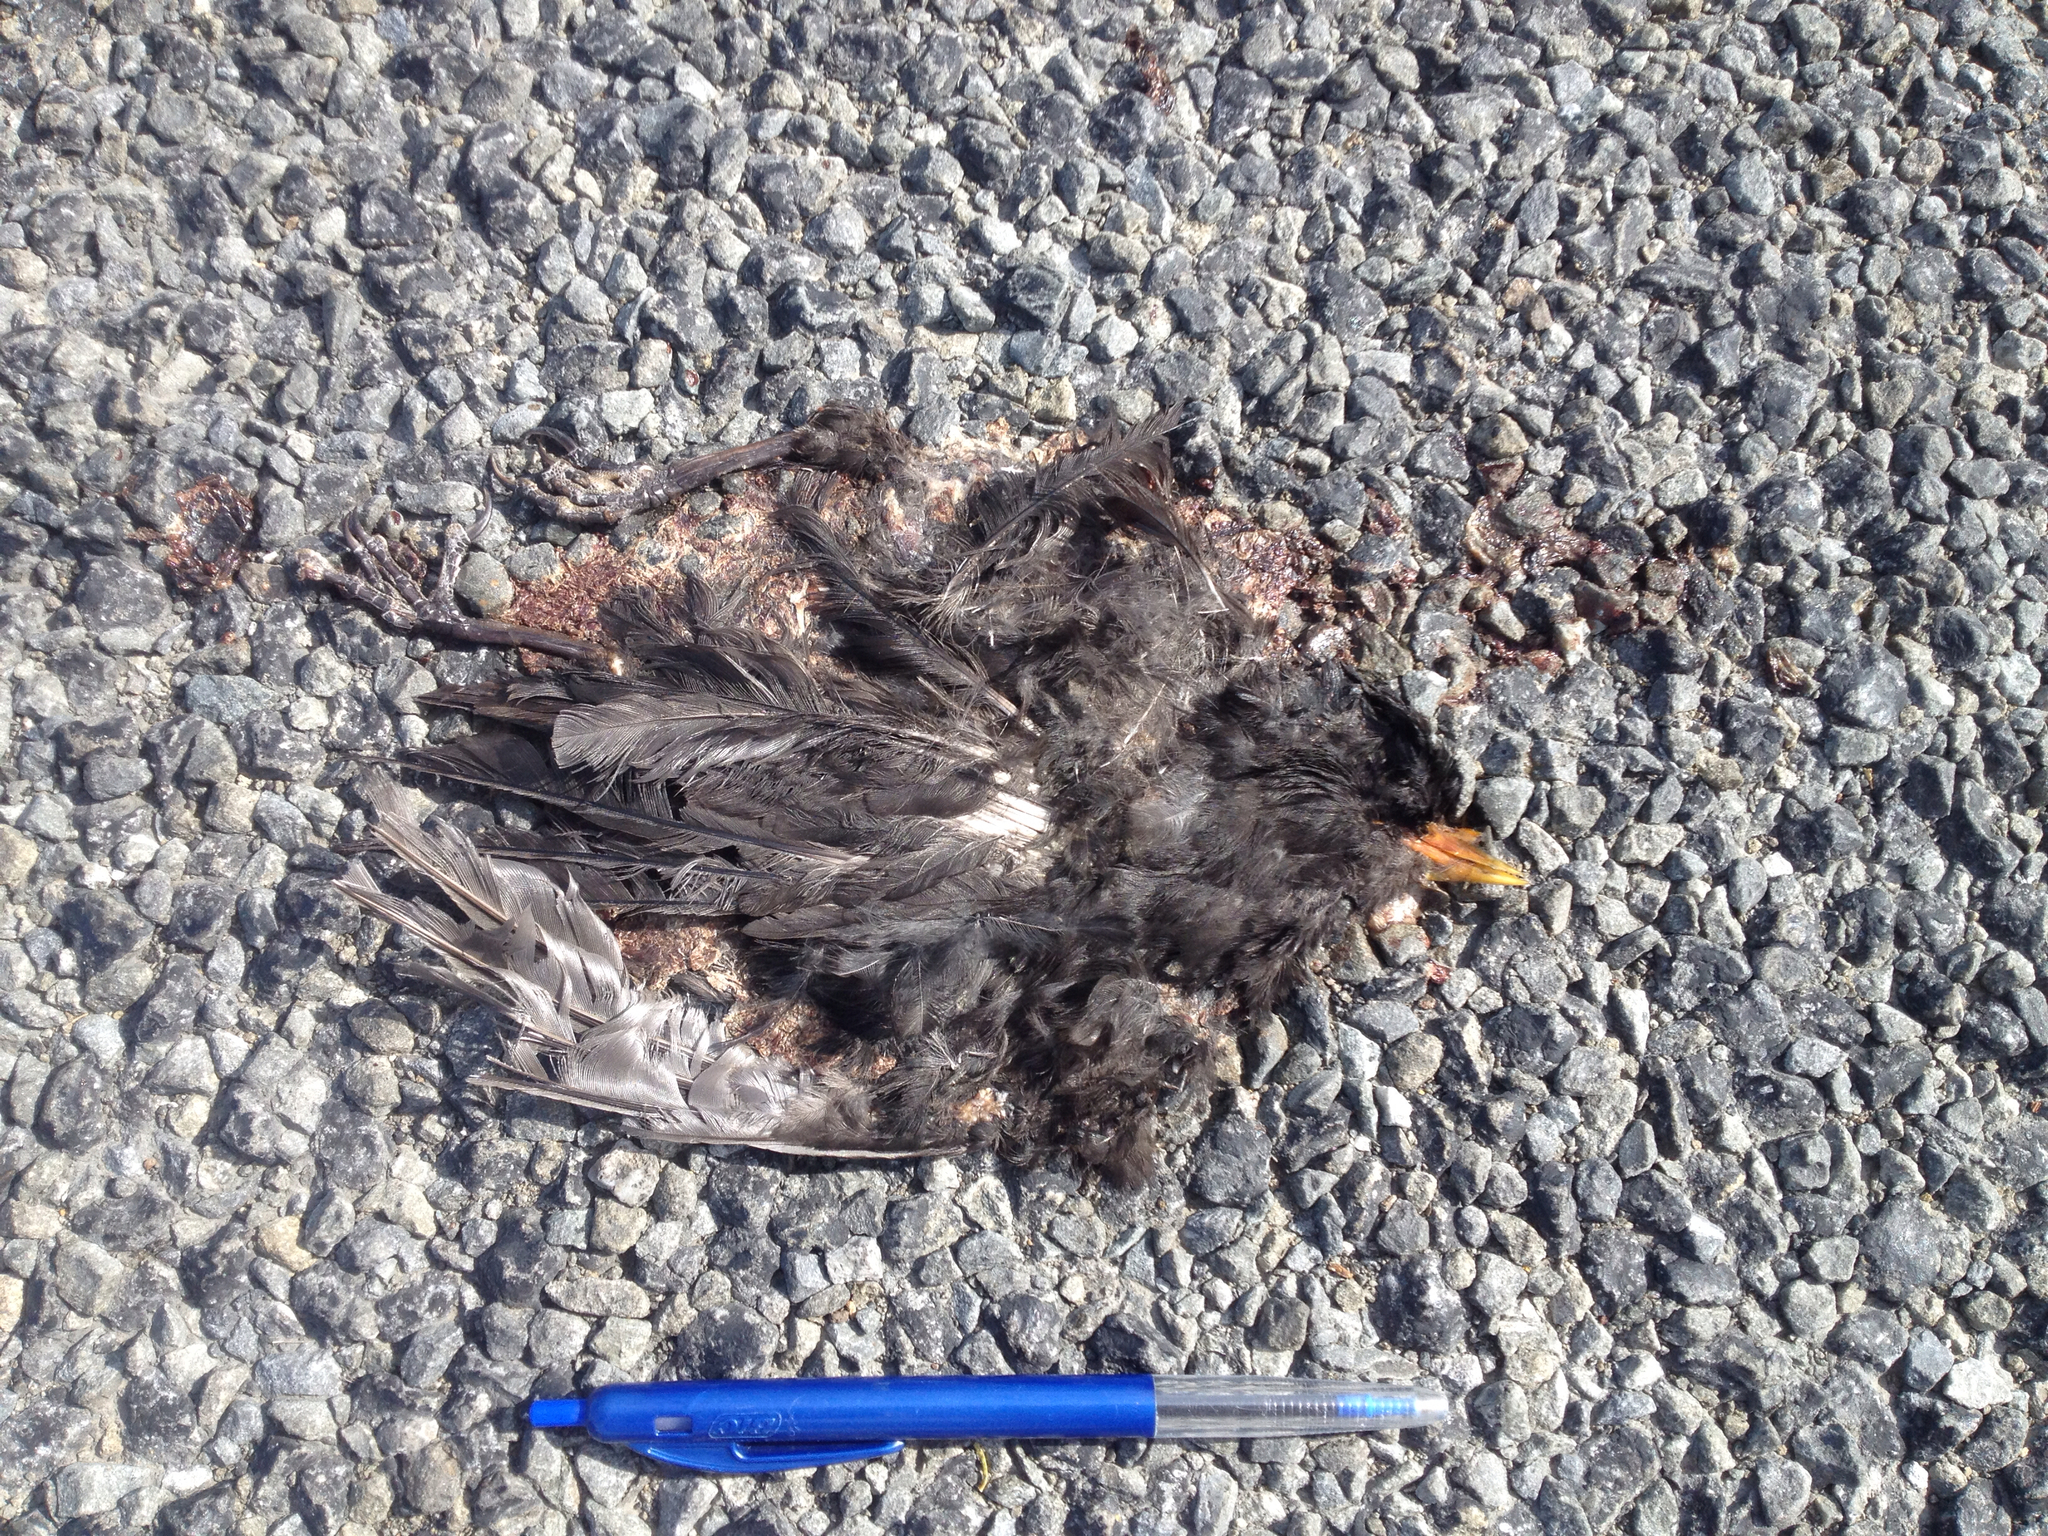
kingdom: Animalia
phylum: Chordata
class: Aves
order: Passeriformes
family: Turdidae
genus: Turdus
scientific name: Turdus merula
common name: Common blackbird
